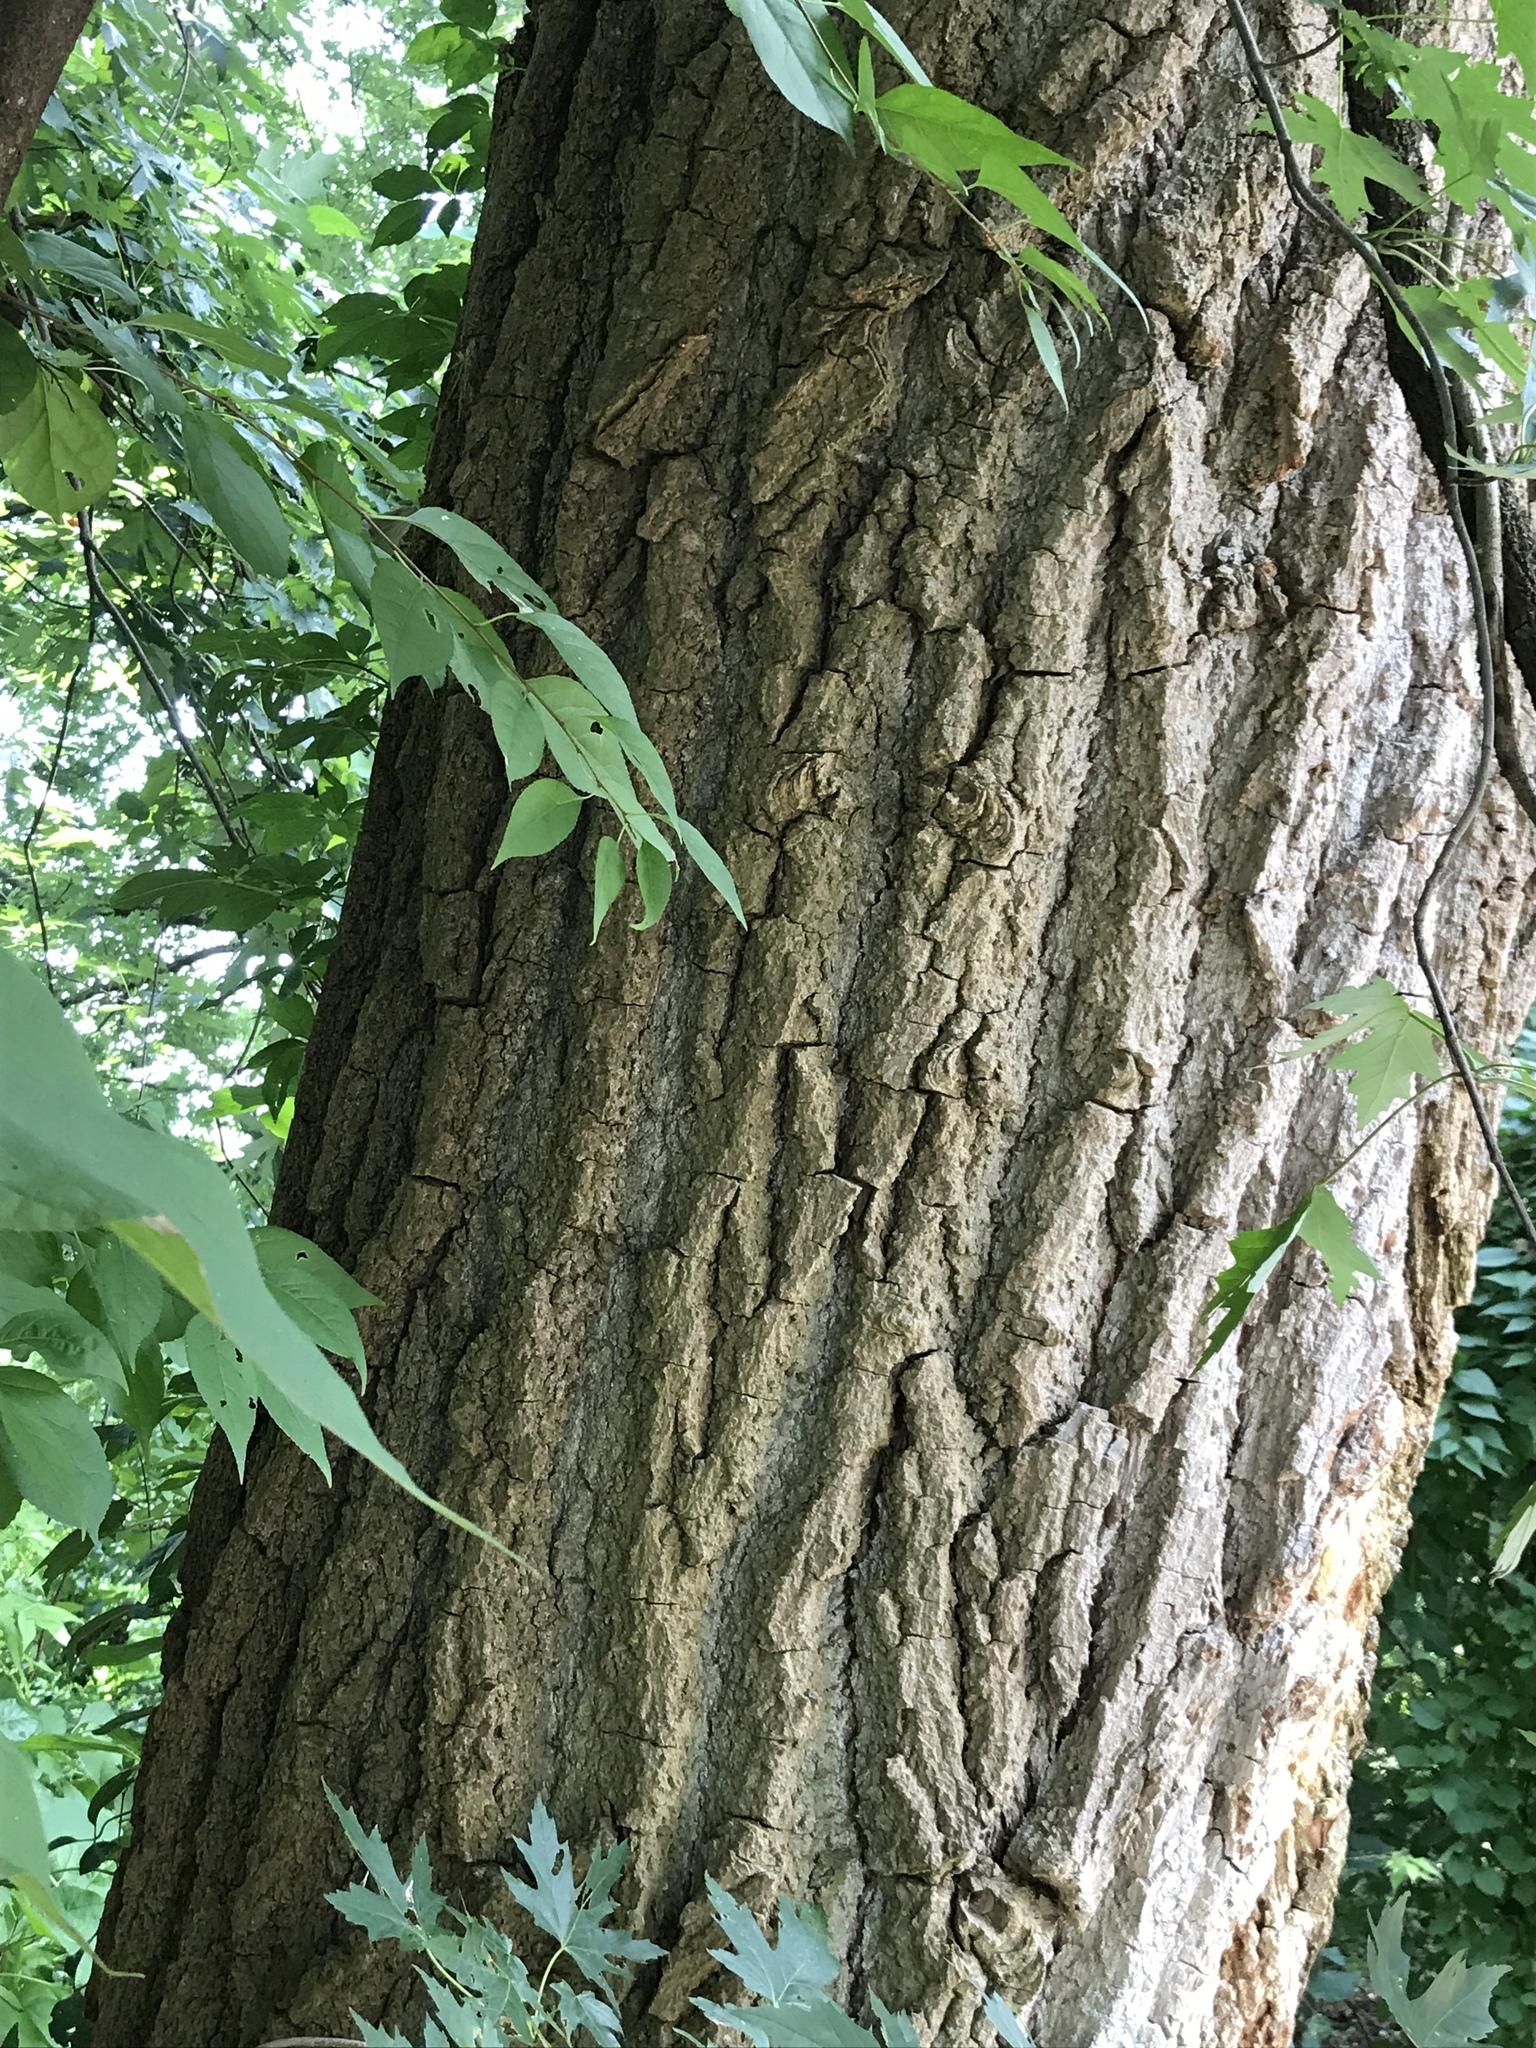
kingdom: Plantae
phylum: Tracheophyta
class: Magnoliopsida
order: Malpighiales
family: Salicaceae
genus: Populus
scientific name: Populus deltoides
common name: Eastern cottonwood
